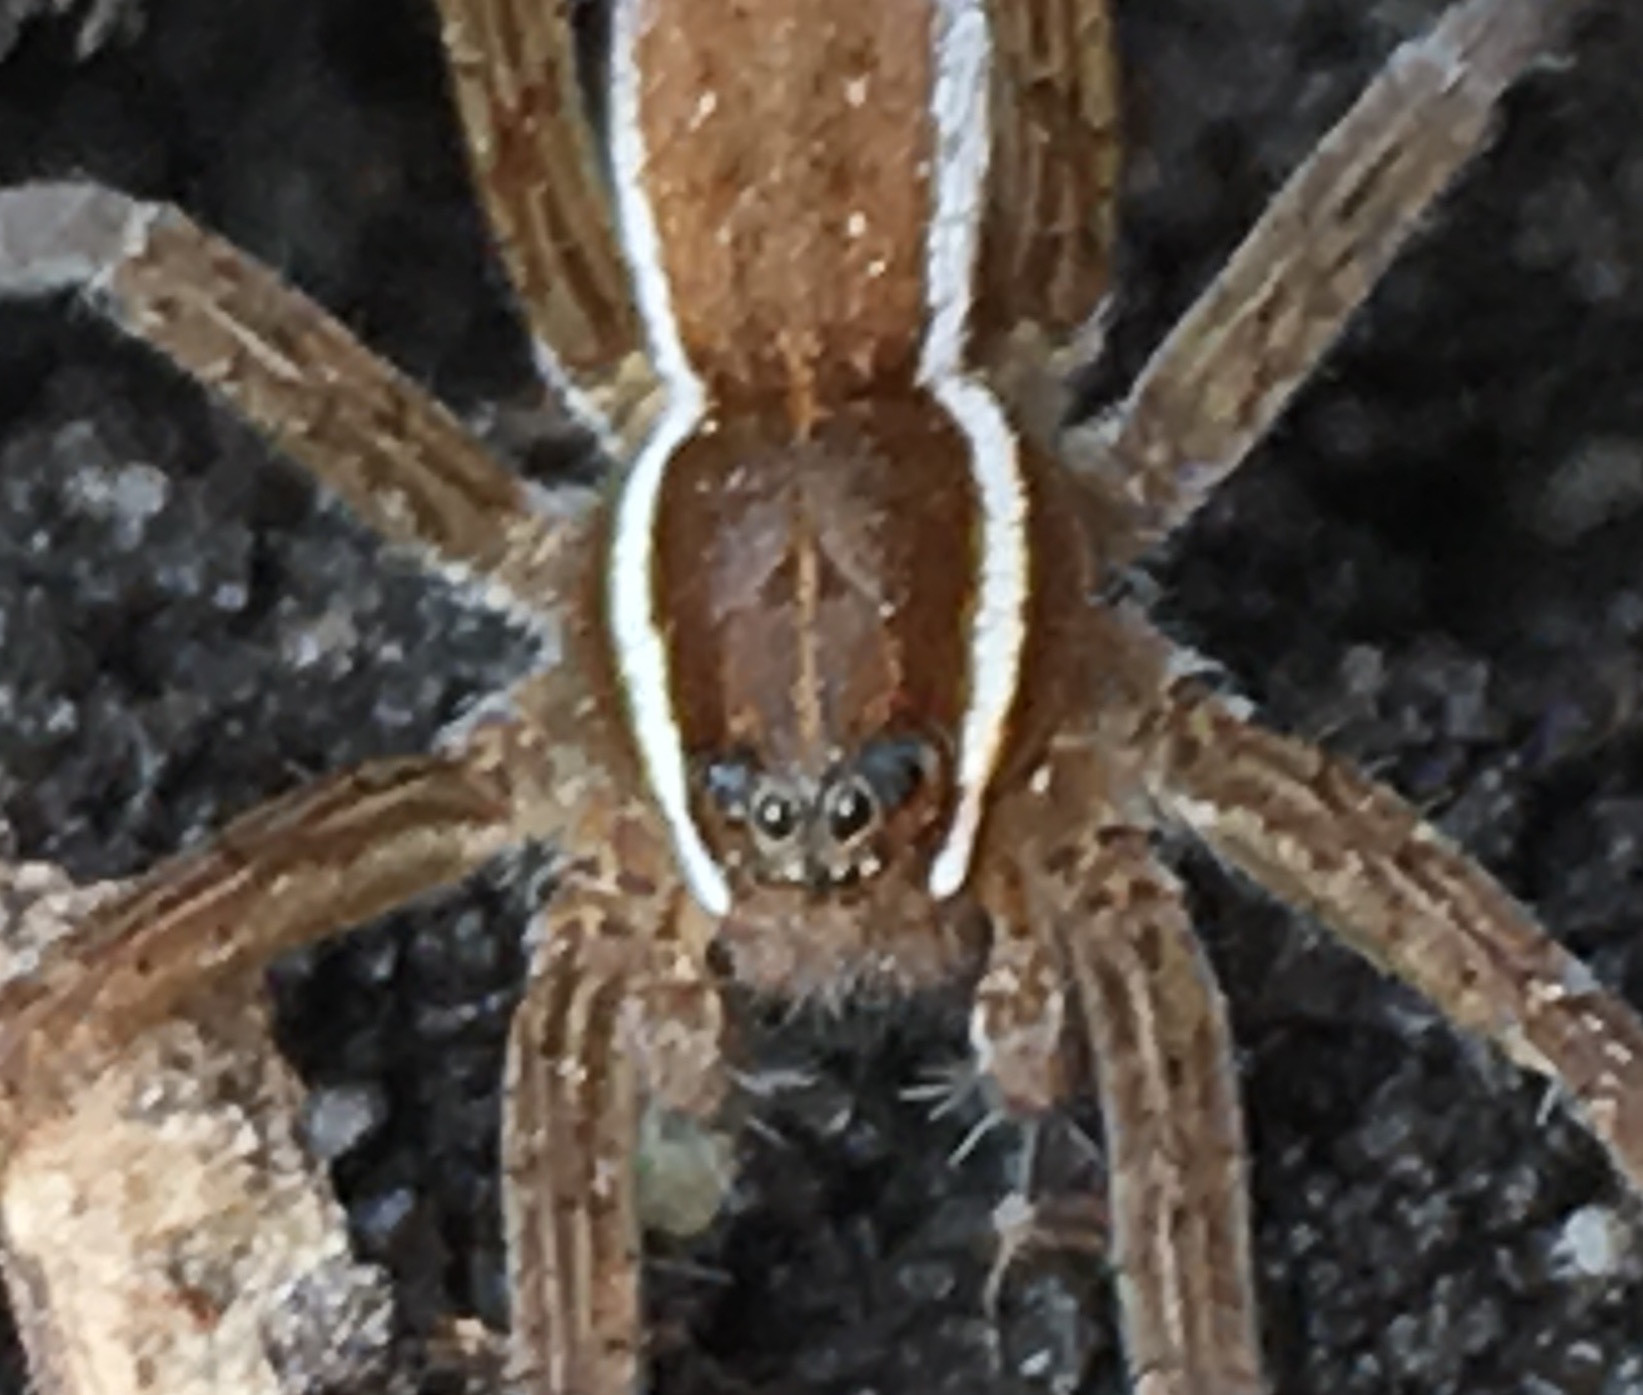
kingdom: Animalia
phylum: Arthropoda
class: Arachnida
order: Araneae
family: Pisauridae
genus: Dolomedes
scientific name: Dolomedes triton
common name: Six-spotted fishing spider
